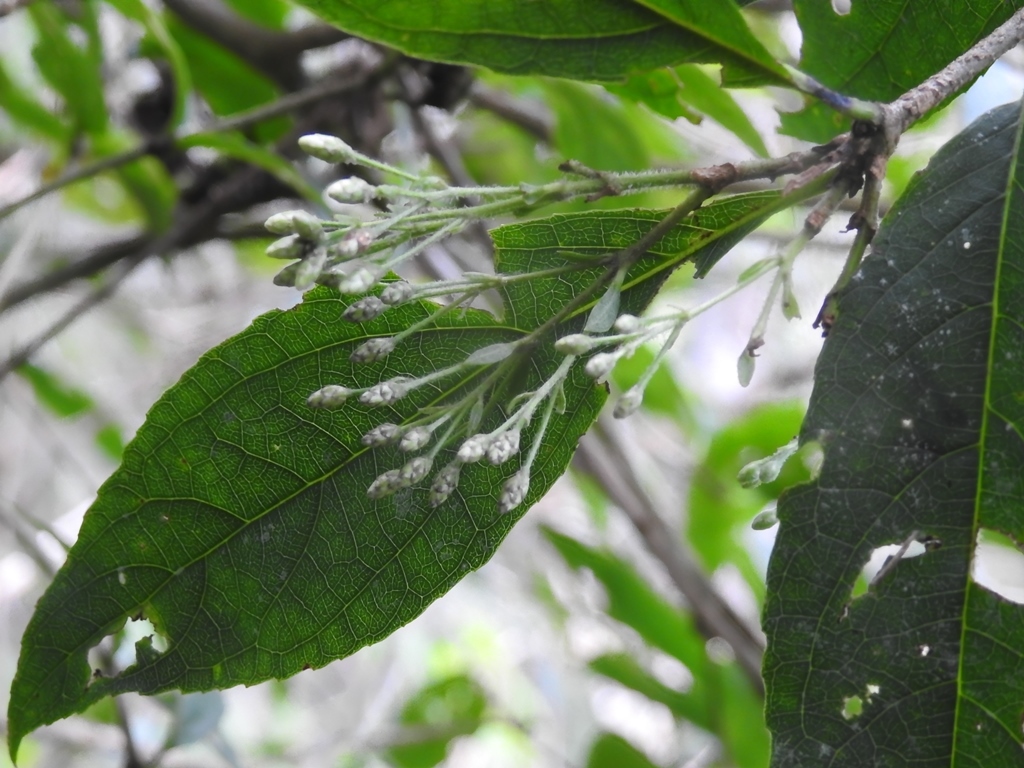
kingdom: Plantae
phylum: Tracheophyta
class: Magnoliopsida
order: Asterales
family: Asteraceae
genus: Chromolaena
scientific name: Chromolaena quercetorum
